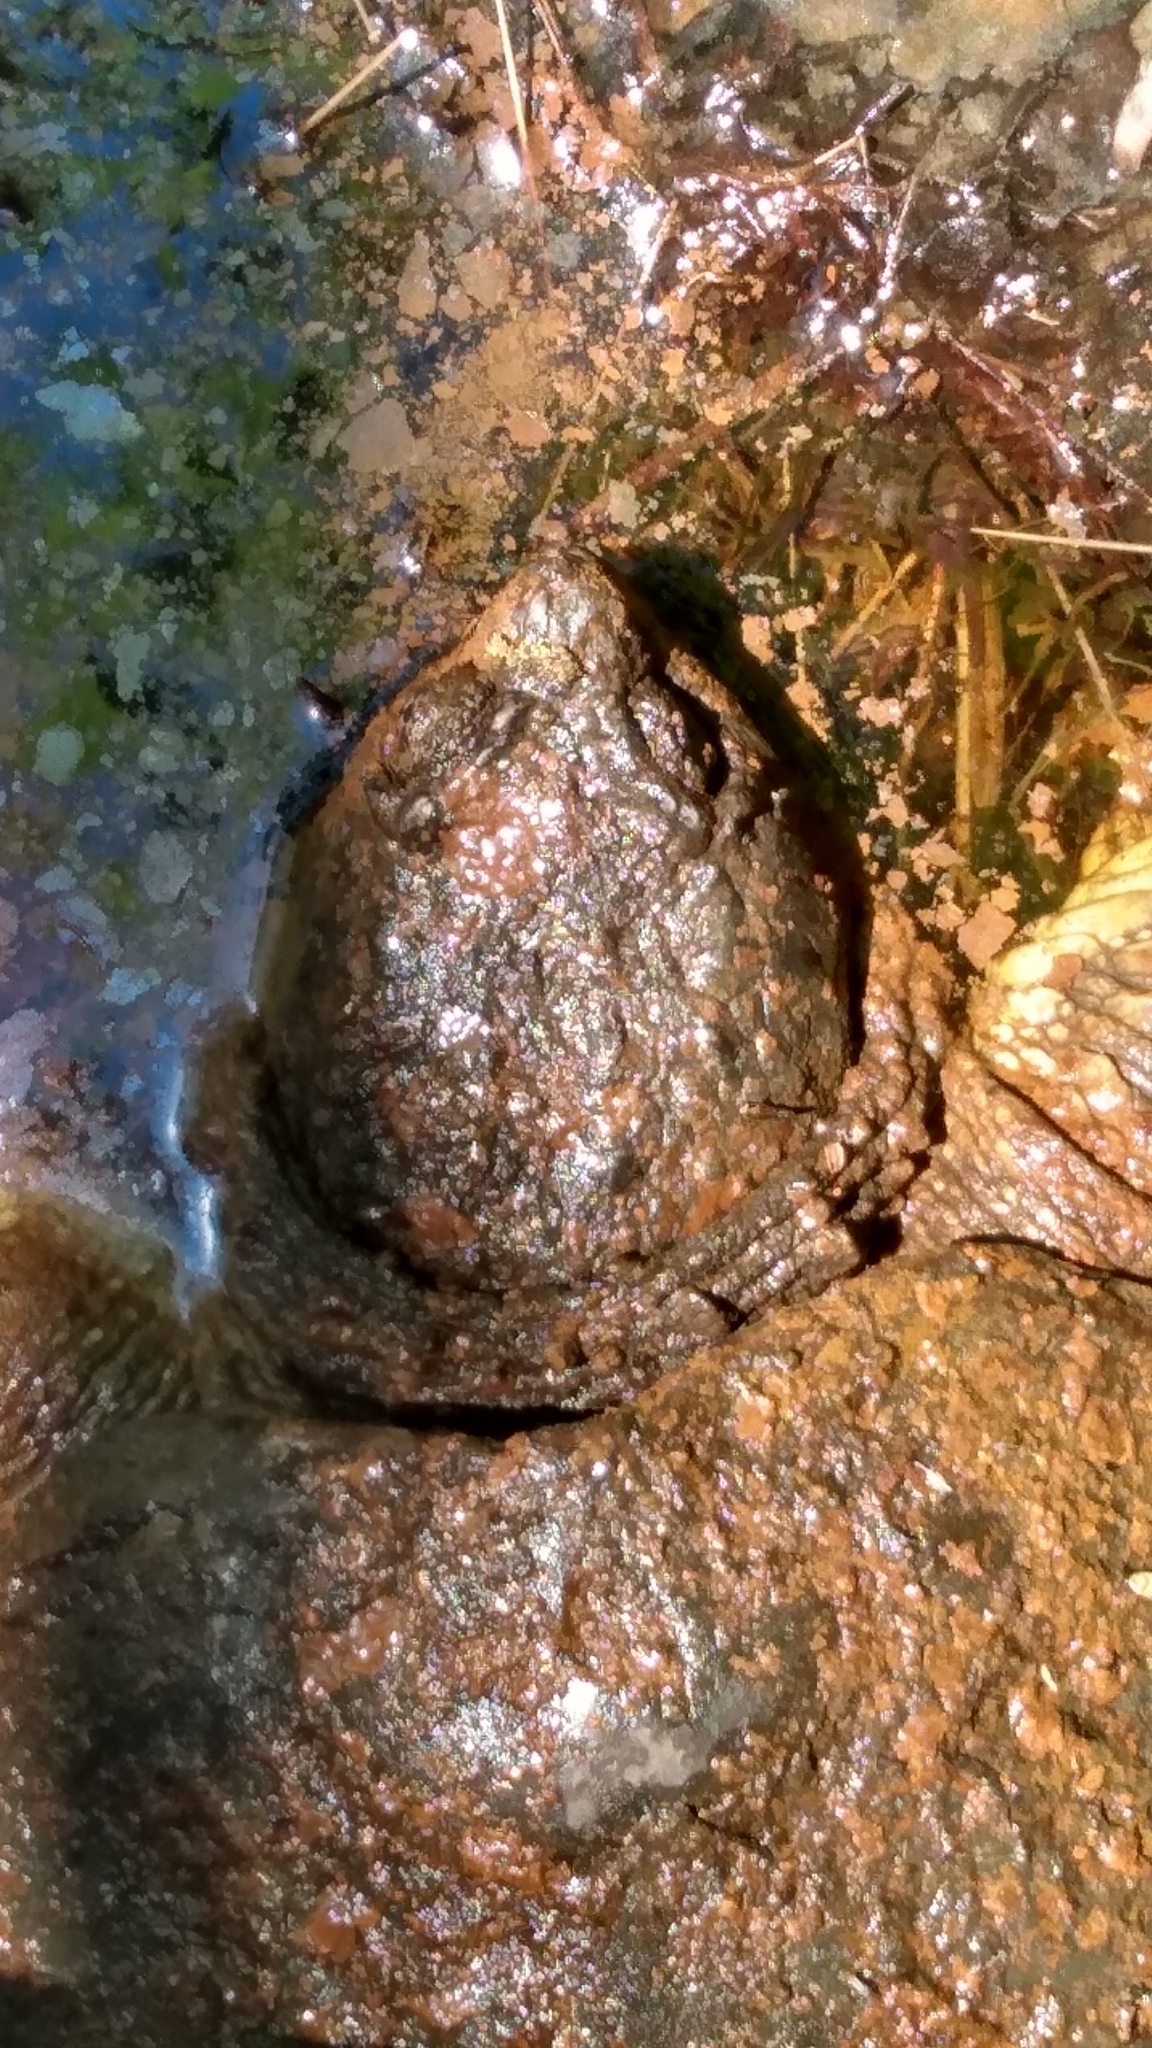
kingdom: Animalia
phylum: Chordata
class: Testudines
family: Chelydridae
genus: Chelydra
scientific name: Chelydra serpentina
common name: Common snapping turtle
